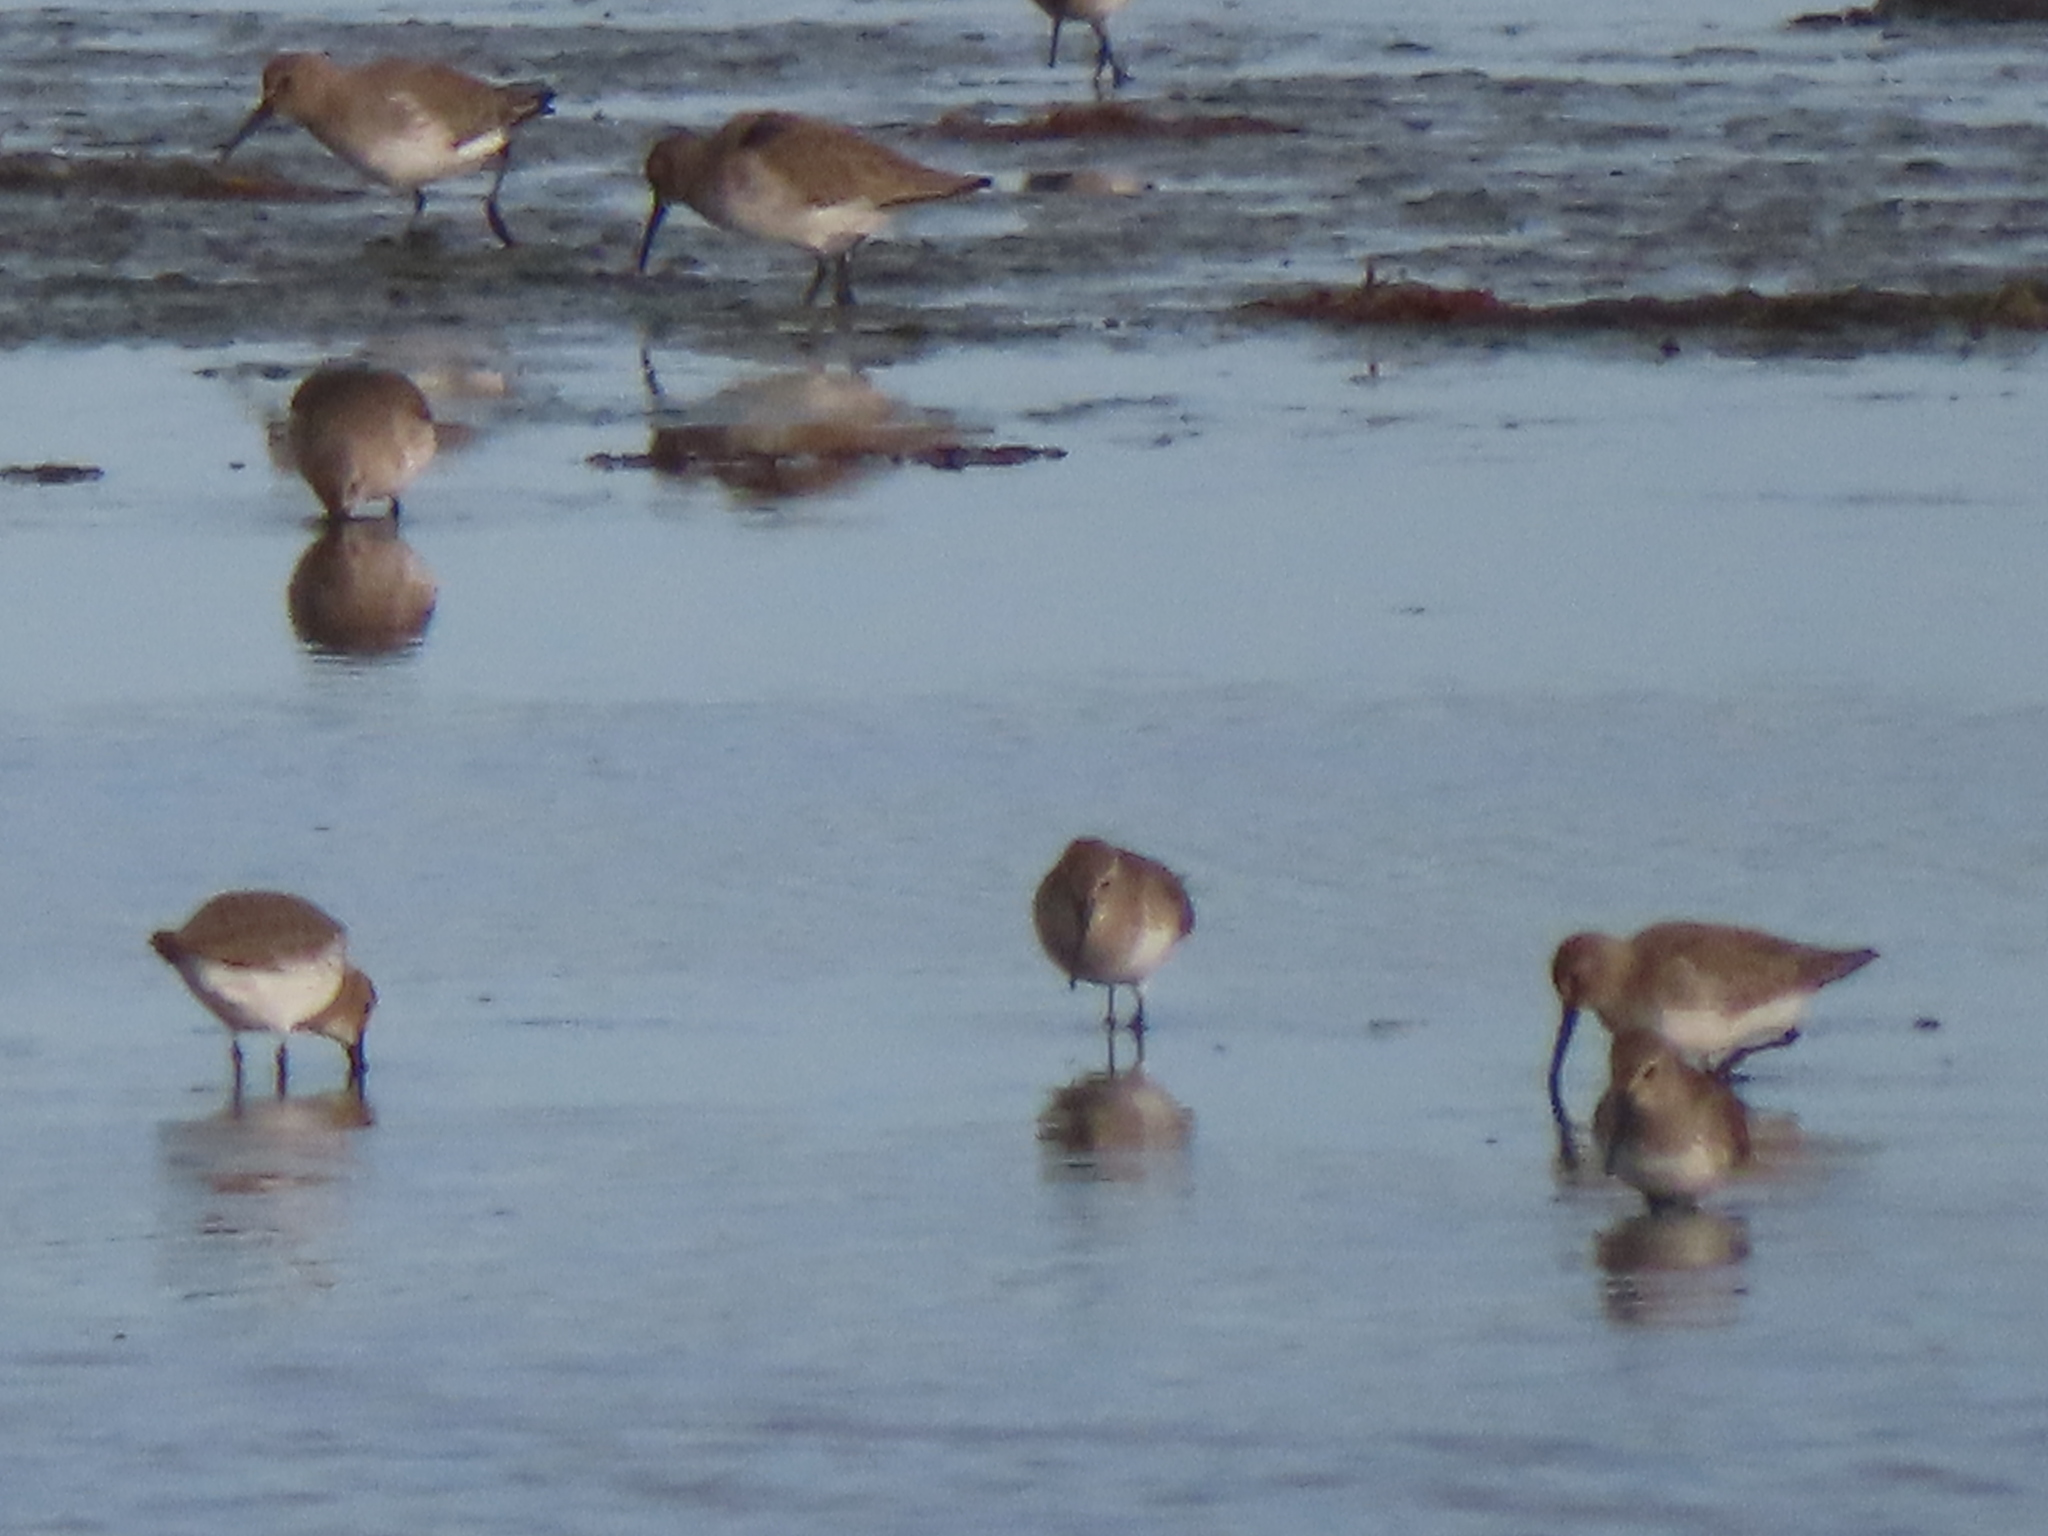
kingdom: Animalia
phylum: Chordata
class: Aves
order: Charadriiformes
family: Scolopacidae
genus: Calidris
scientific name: Calidris alpina
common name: Dunlin
